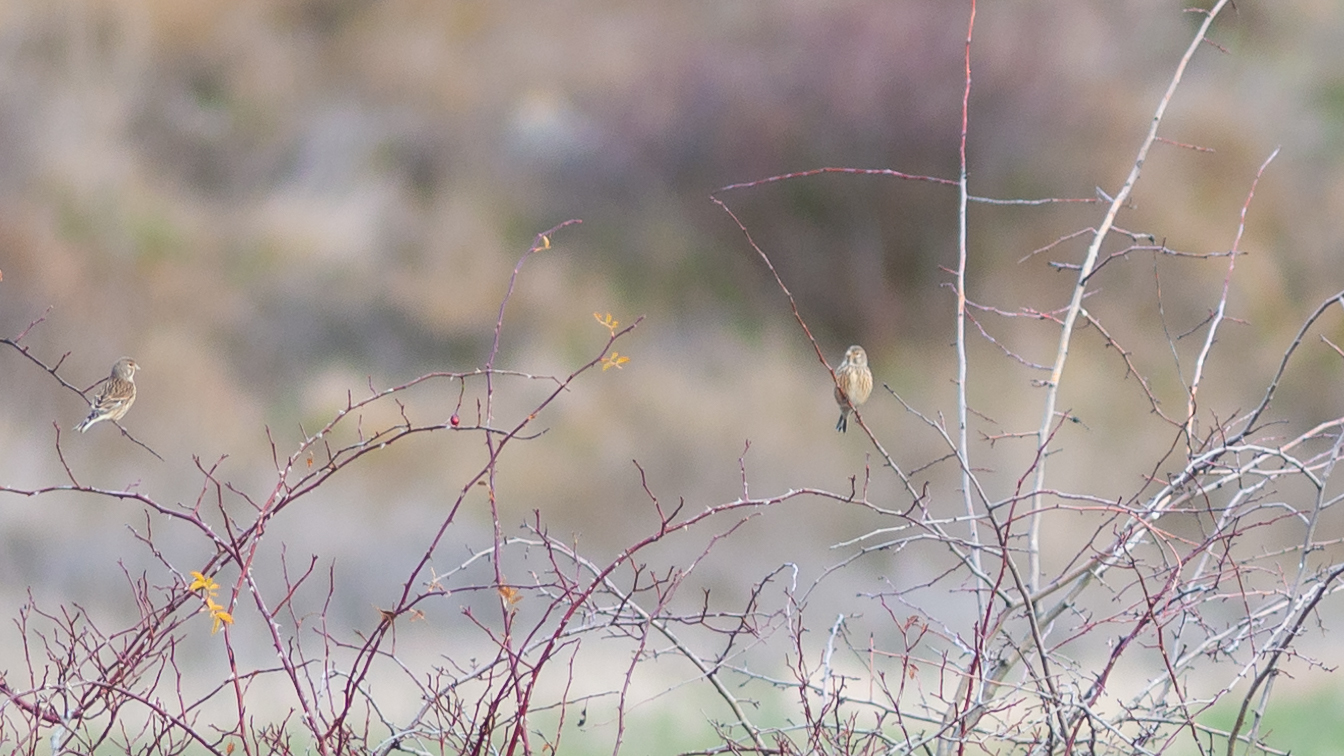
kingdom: Animalia
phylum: Chordata
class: Aves
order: Passeriformes
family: Fringillidae
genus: Linaria
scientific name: Linaria cannabina
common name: Common linnet
